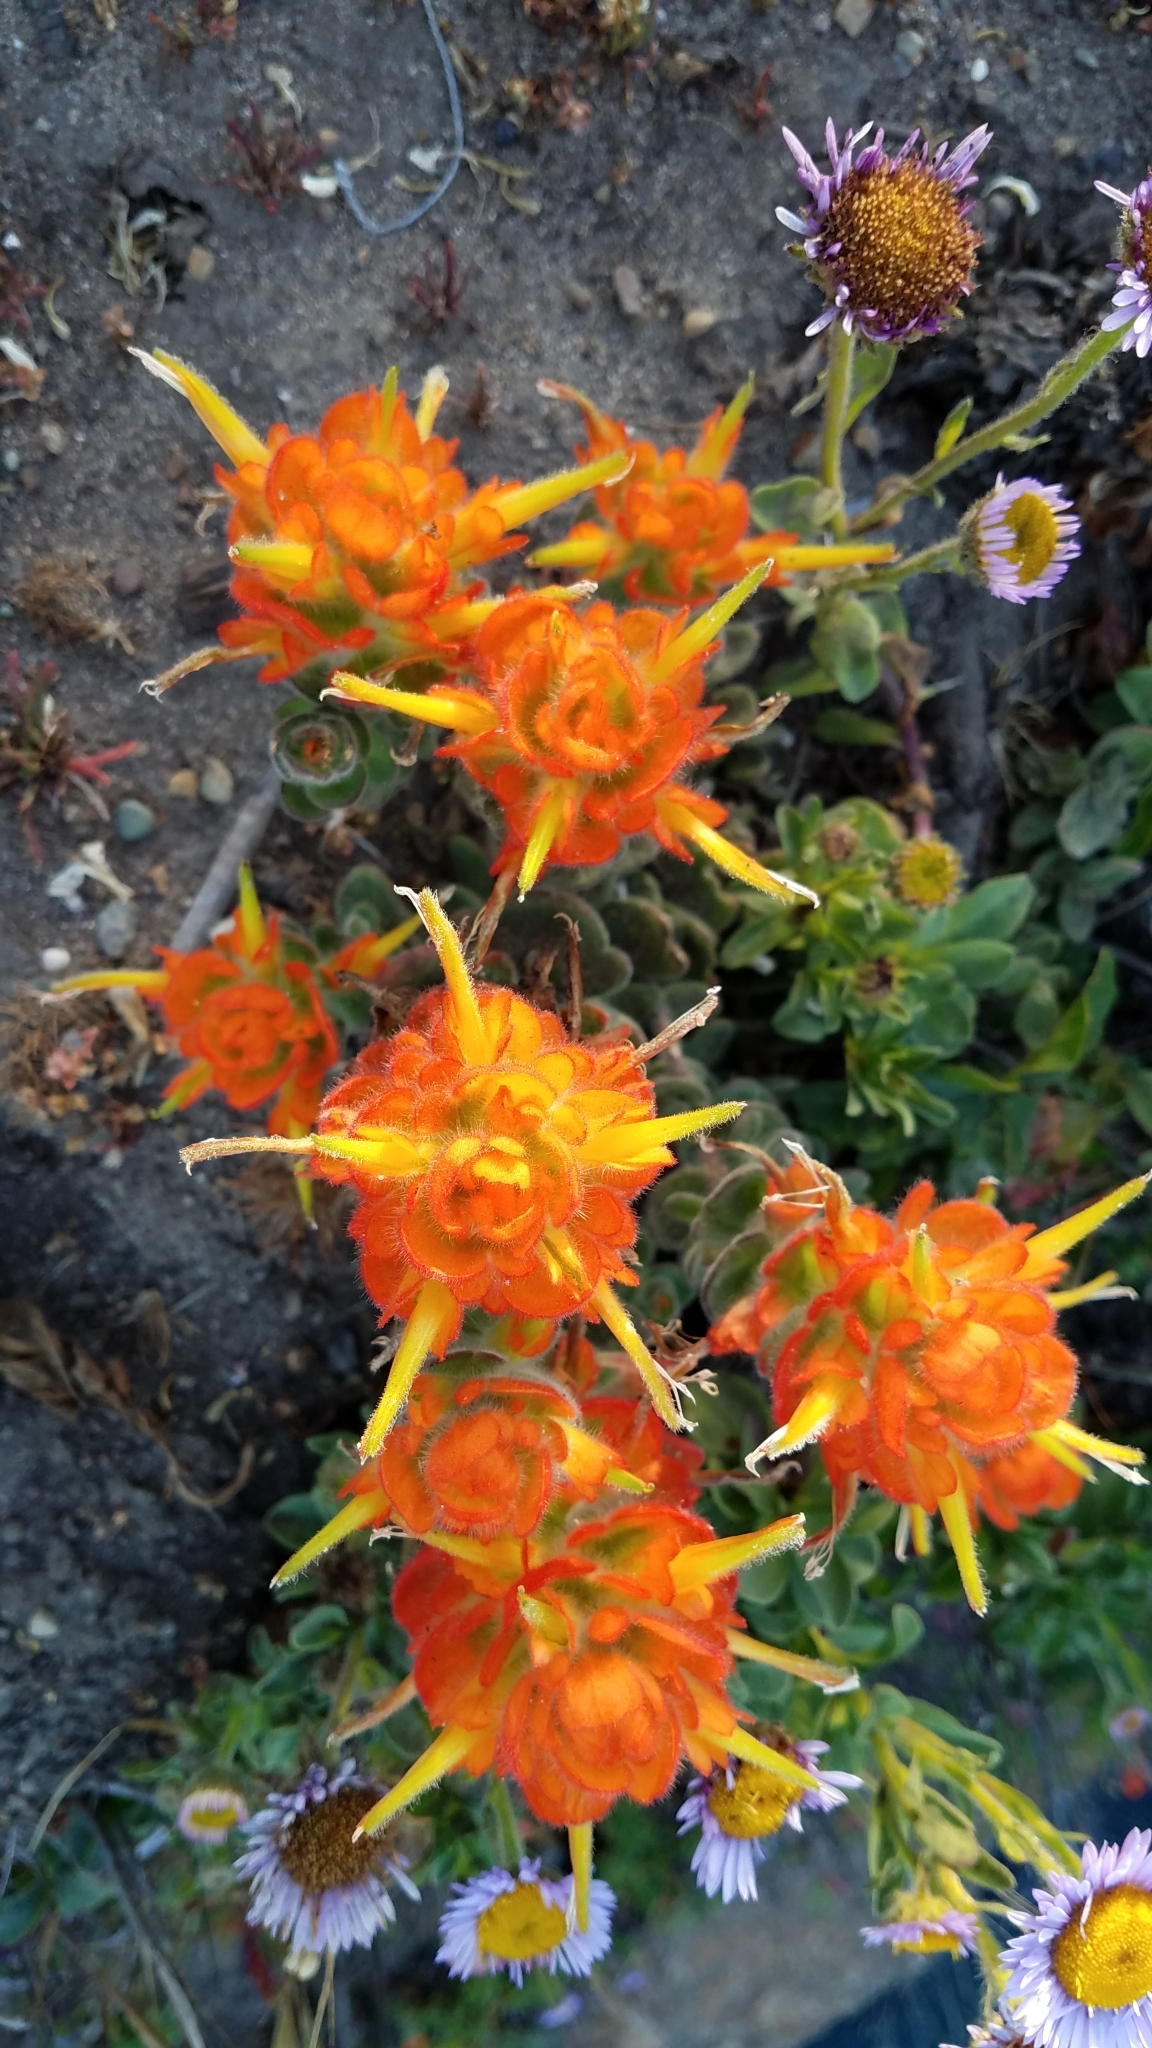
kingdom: Plantae
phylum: Tracheophyta
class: Magnoliopsida
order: Lamiales
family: Orobanchaceae
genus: Castilleja
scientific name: Castilleja mendocinensis
